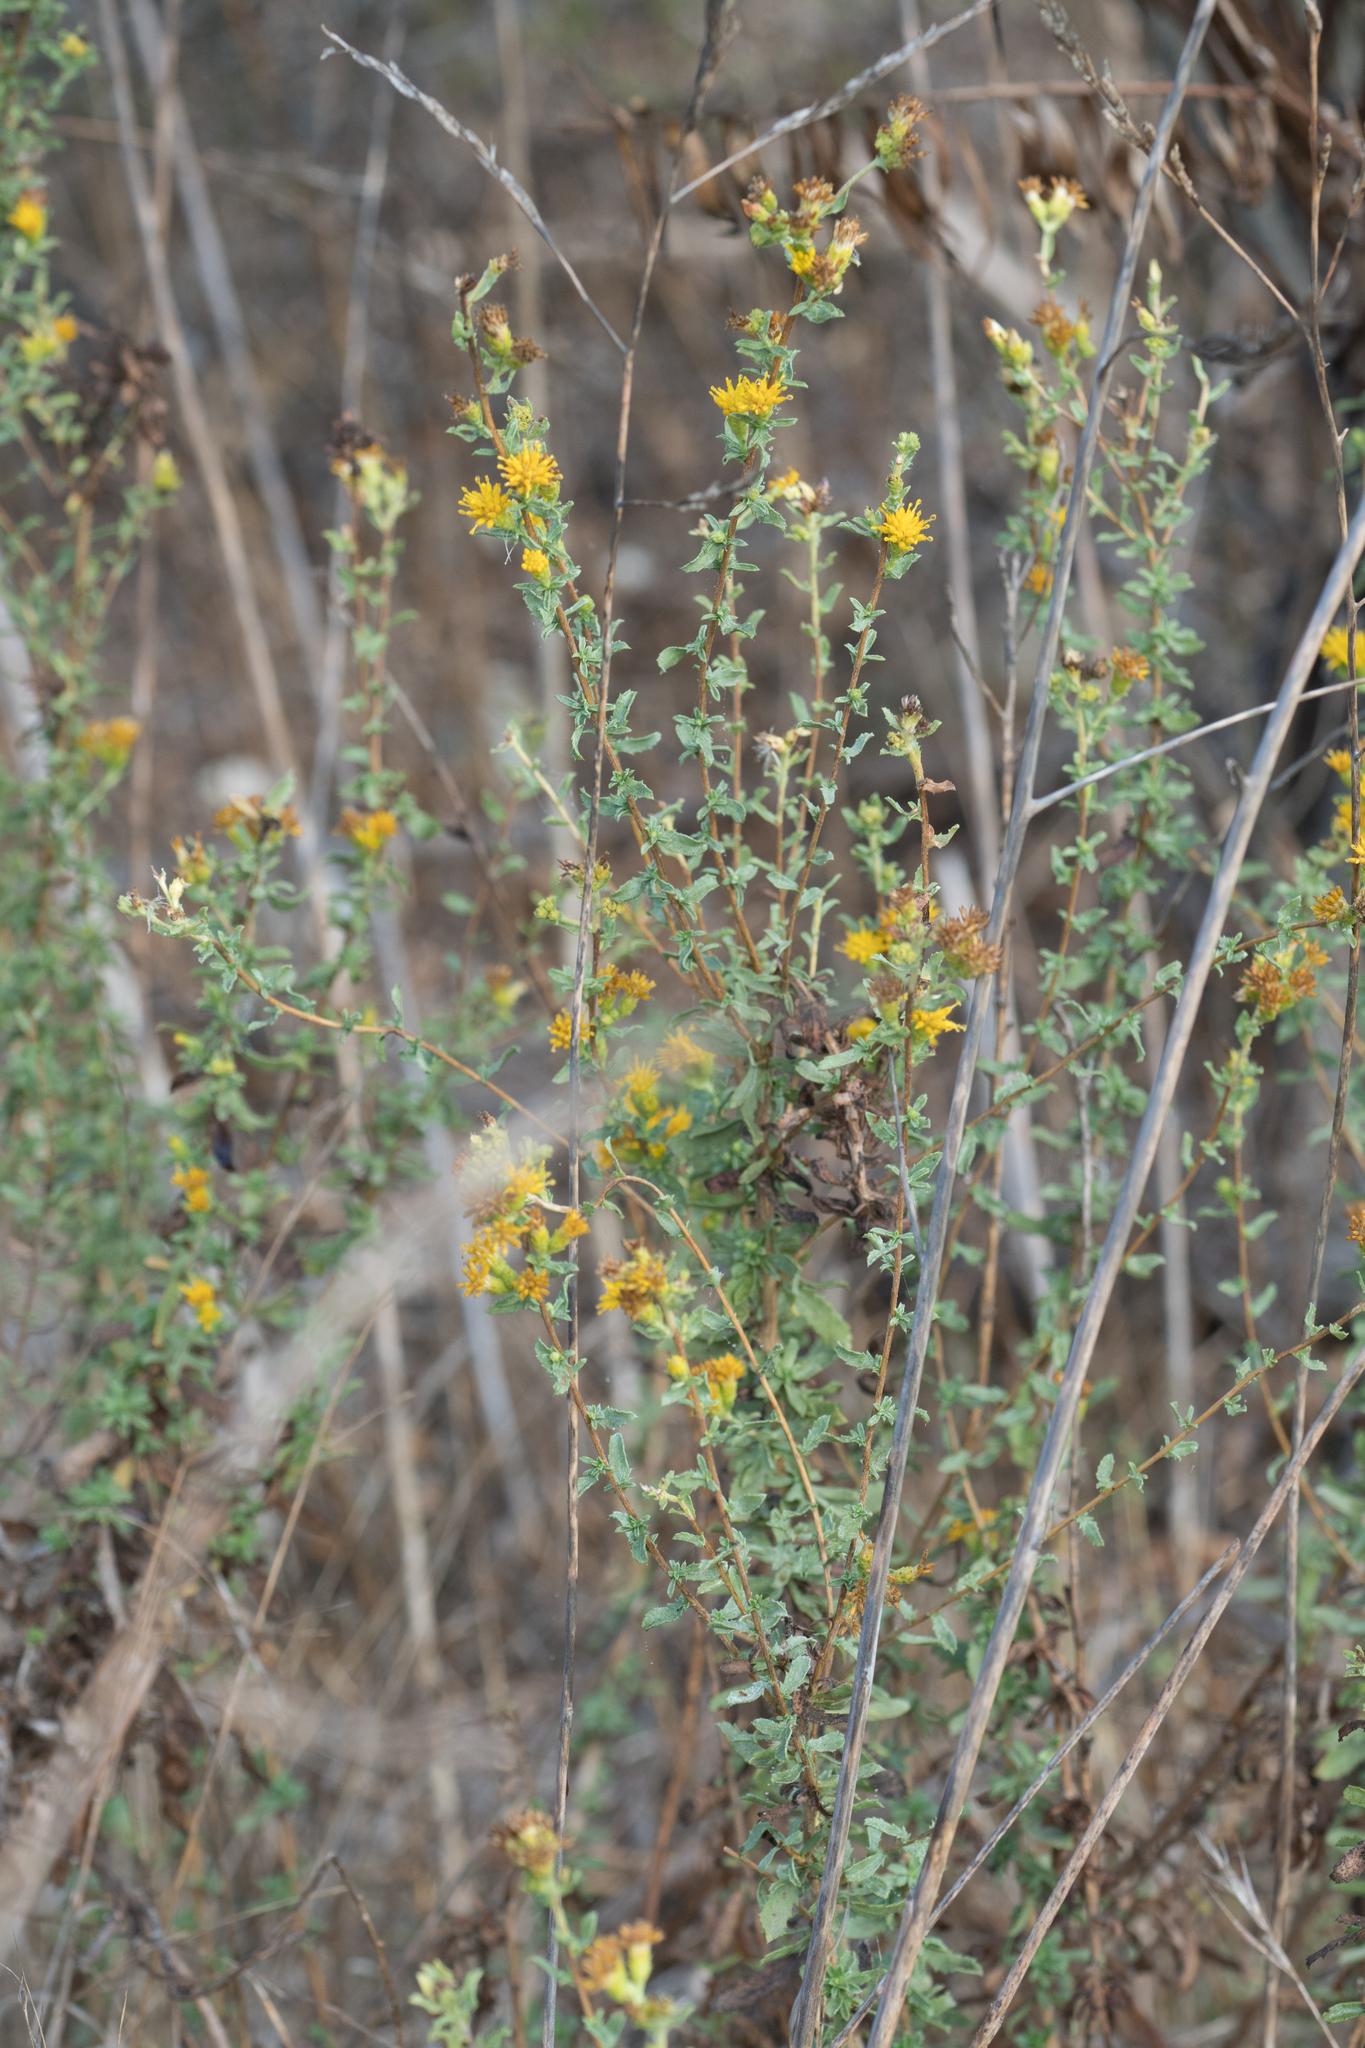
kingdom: Plantae
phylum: Tracheophyta
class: Magnoliopsida
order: Asterales
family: Asteraceae
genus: Isocoma
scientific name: Isocoma menziesii
